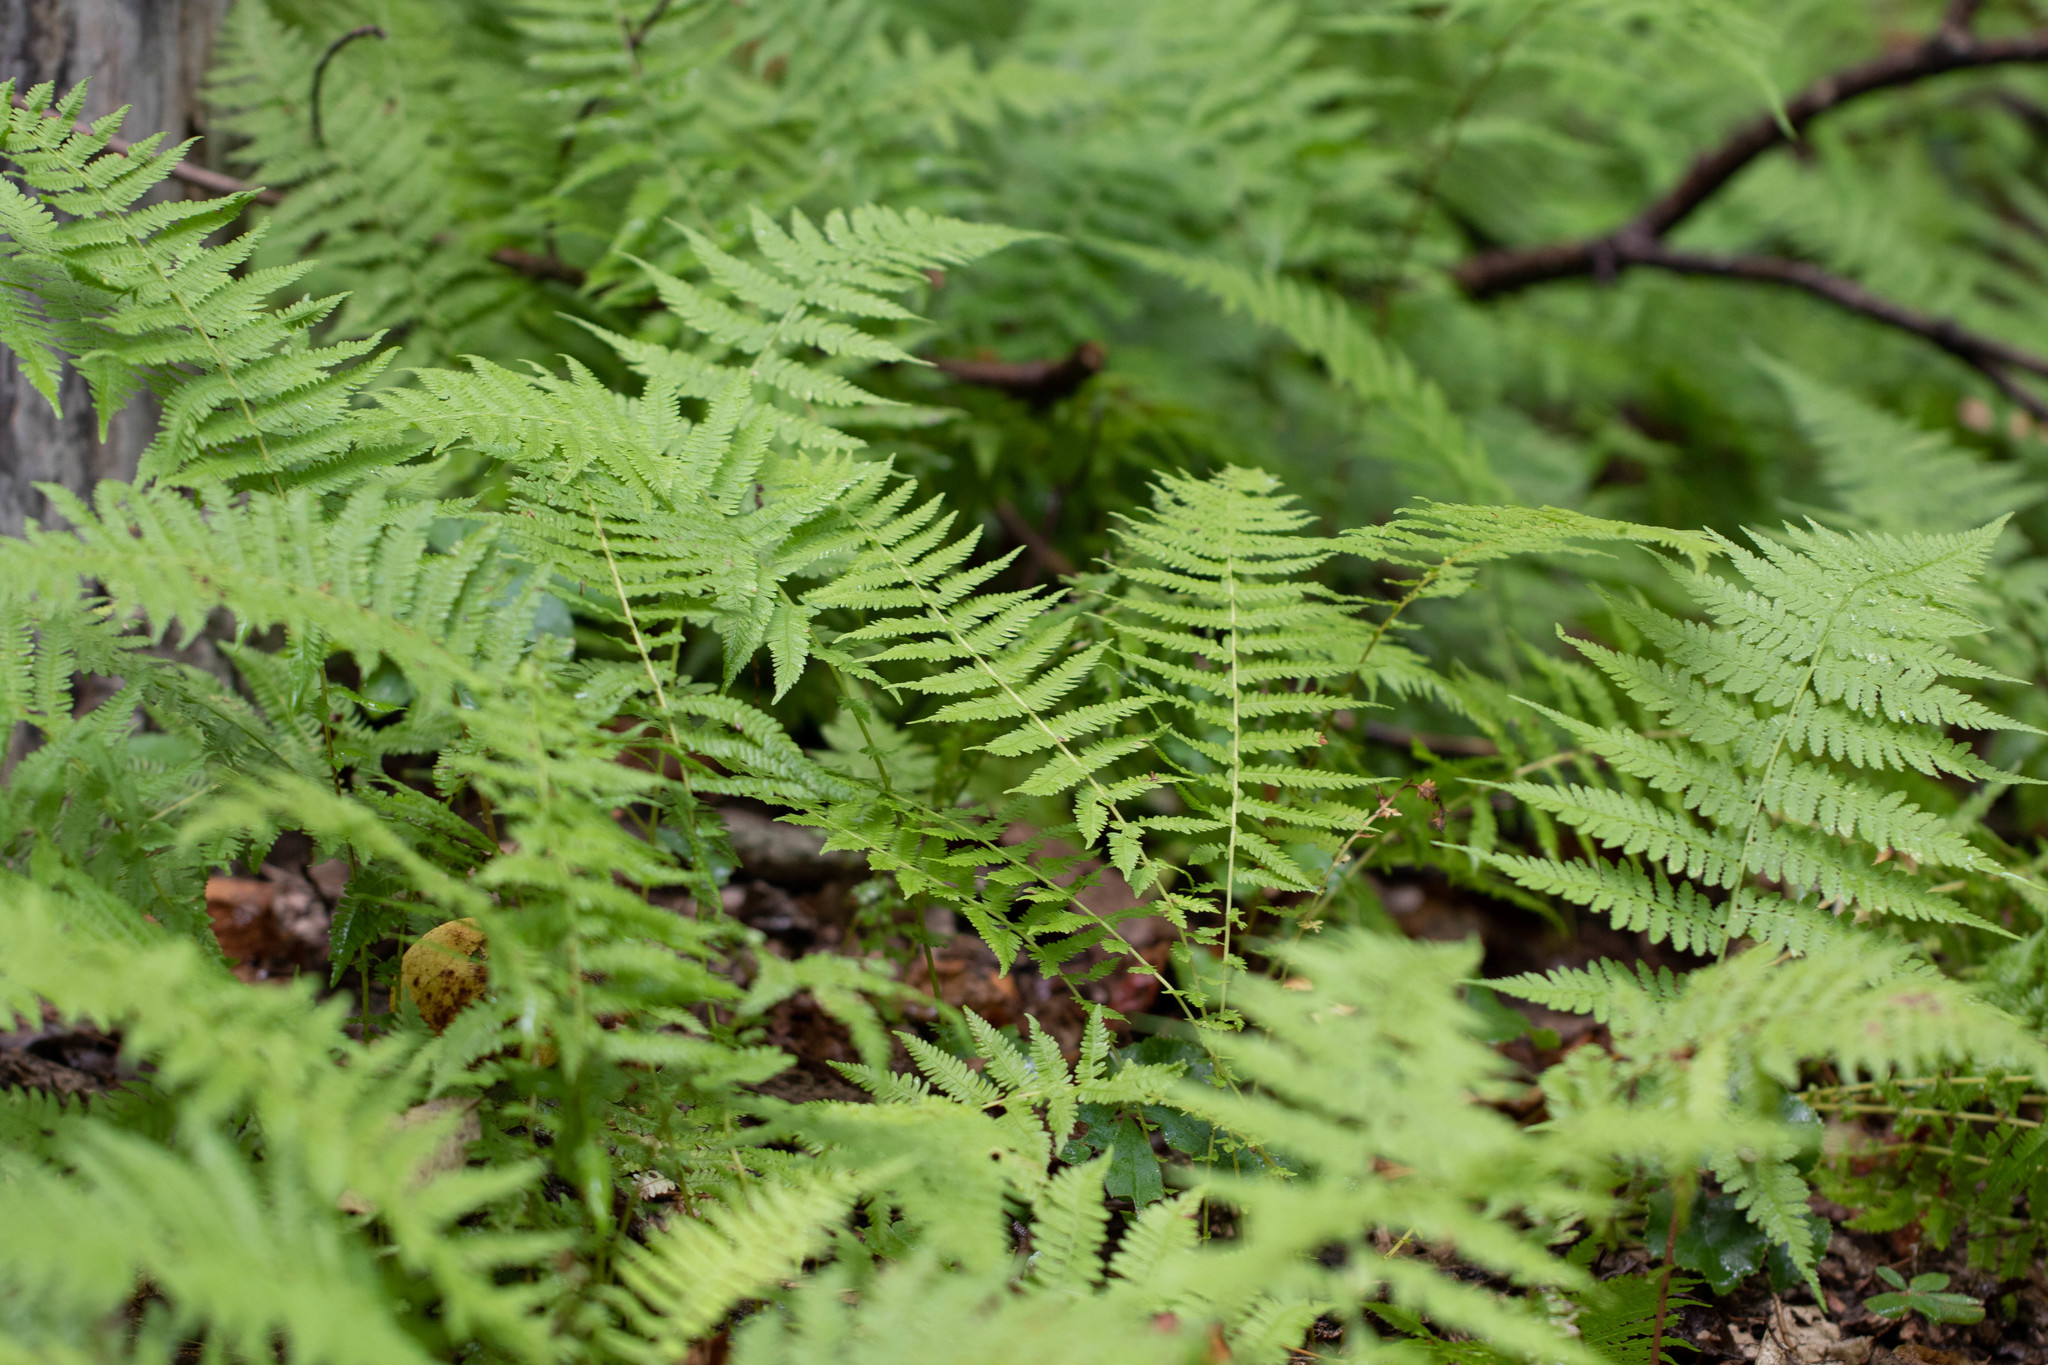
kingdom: Plantae
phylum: Tracheophyta
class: Polypodiopsida
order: Polypodiales
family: Thelypteridaceae
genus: Amauropelta
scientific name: Amauropelta noveboracensis
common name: New york fern
